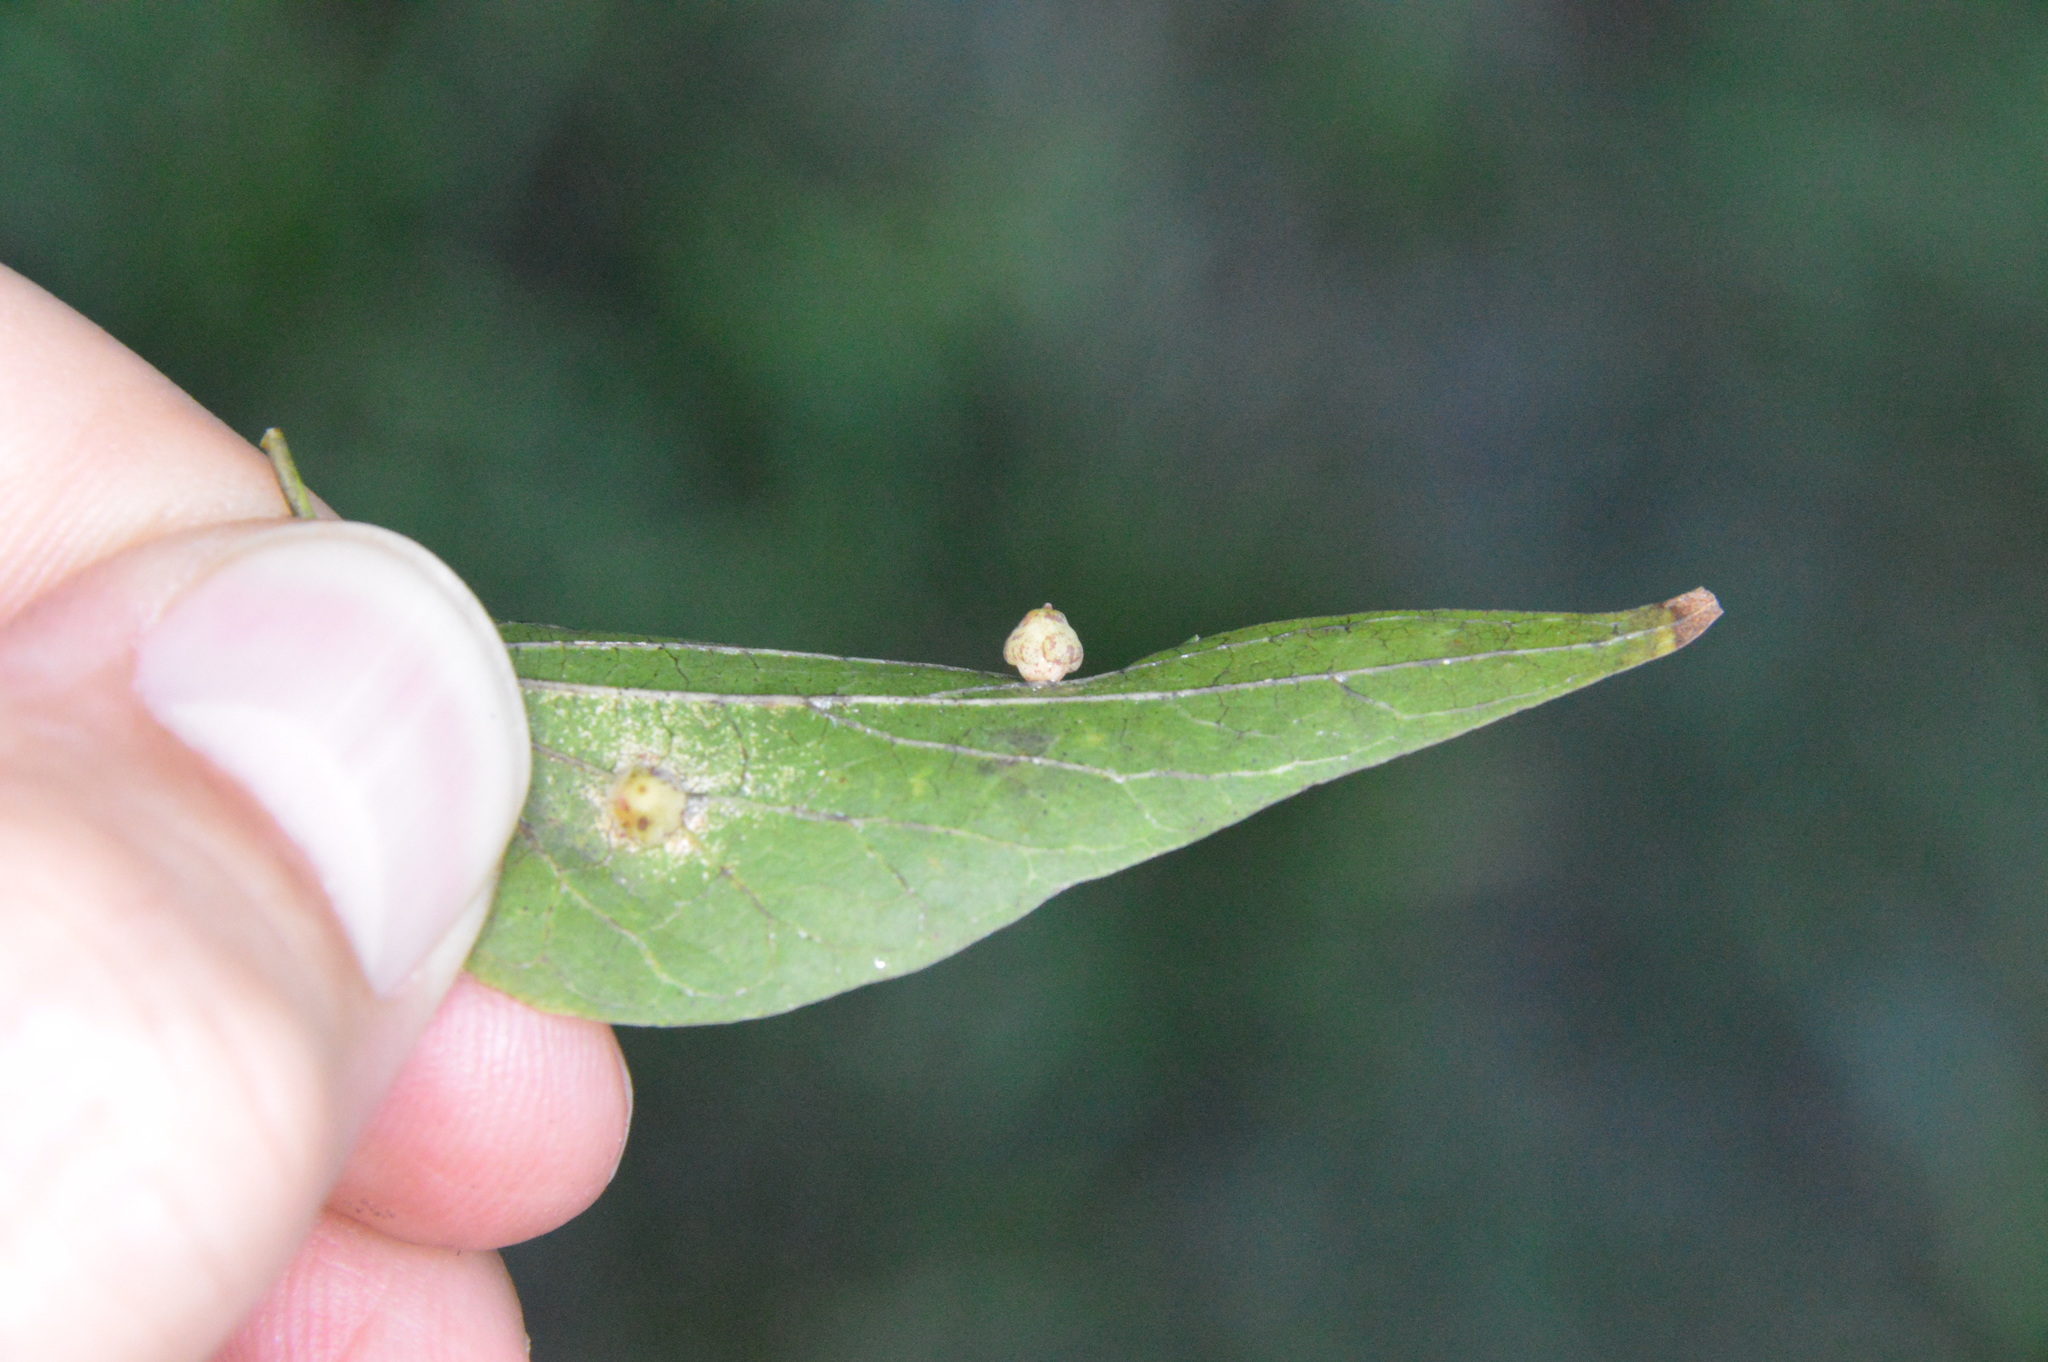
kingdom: Animalia
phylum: Arthropoda
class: Insecta
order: Diptera
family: Cecidomyiidae
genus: Celticecis
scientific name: Celticecis globosa
